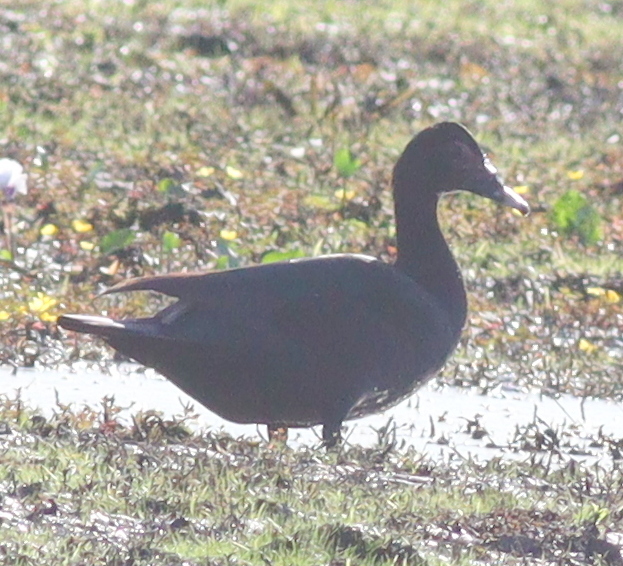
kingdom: Animalia
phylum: Chordata
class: Aves
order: Anseriformes
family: Anatidae
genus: Cairina
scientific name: Cairina moschata
